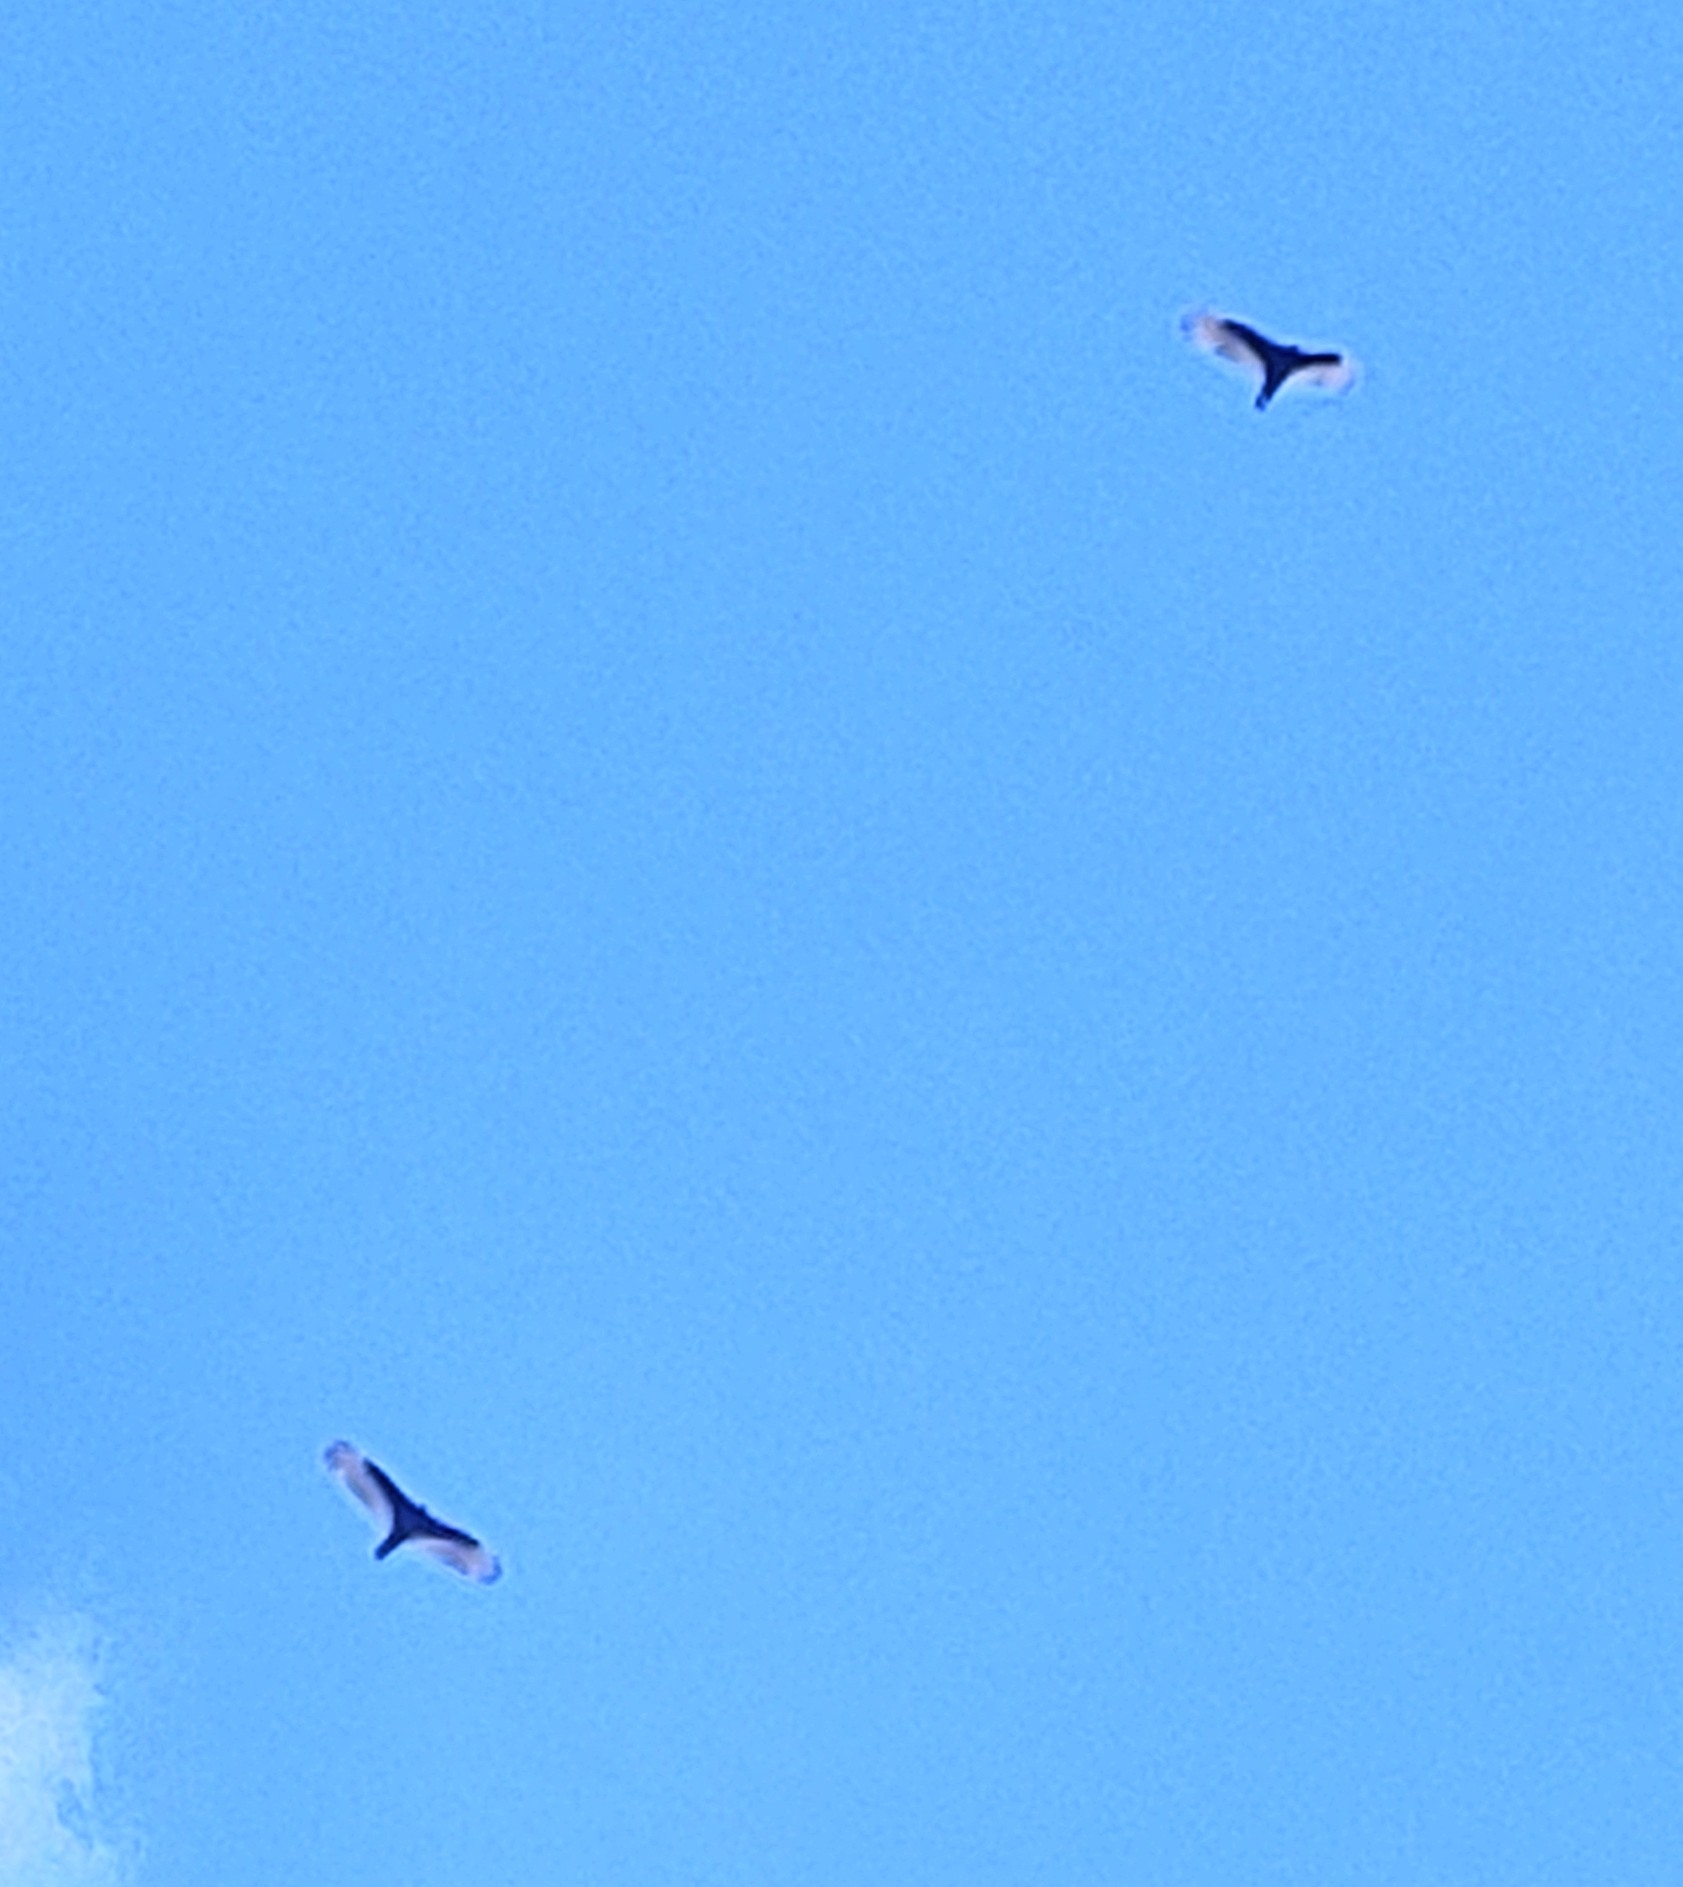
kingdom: Animalia
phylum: Chordata
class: Aves
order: Accipitriformes
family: Cathartidae
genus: Cathartes
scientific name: Cathartes aura
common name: Turkey vulture
